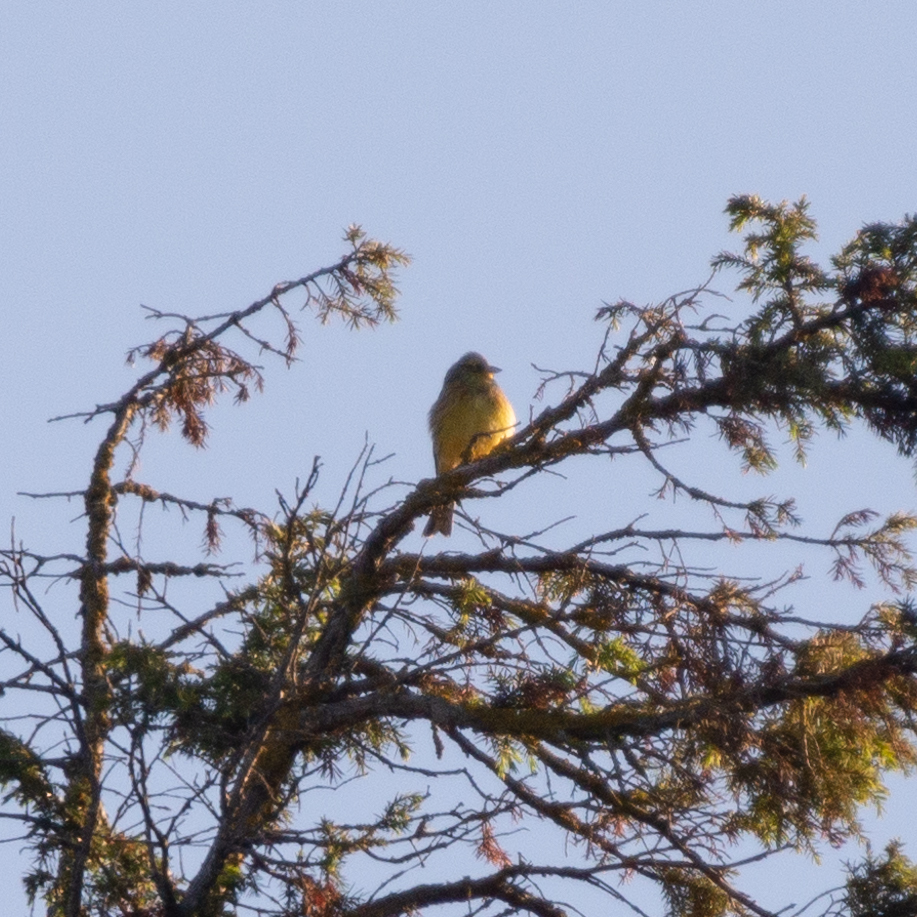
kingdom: Animalia
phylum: Chordata
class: Aves
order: Passeriformes
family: Emberizidae
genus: Emberiza
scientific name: Emberiza citrinella
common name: Yellowhammer
